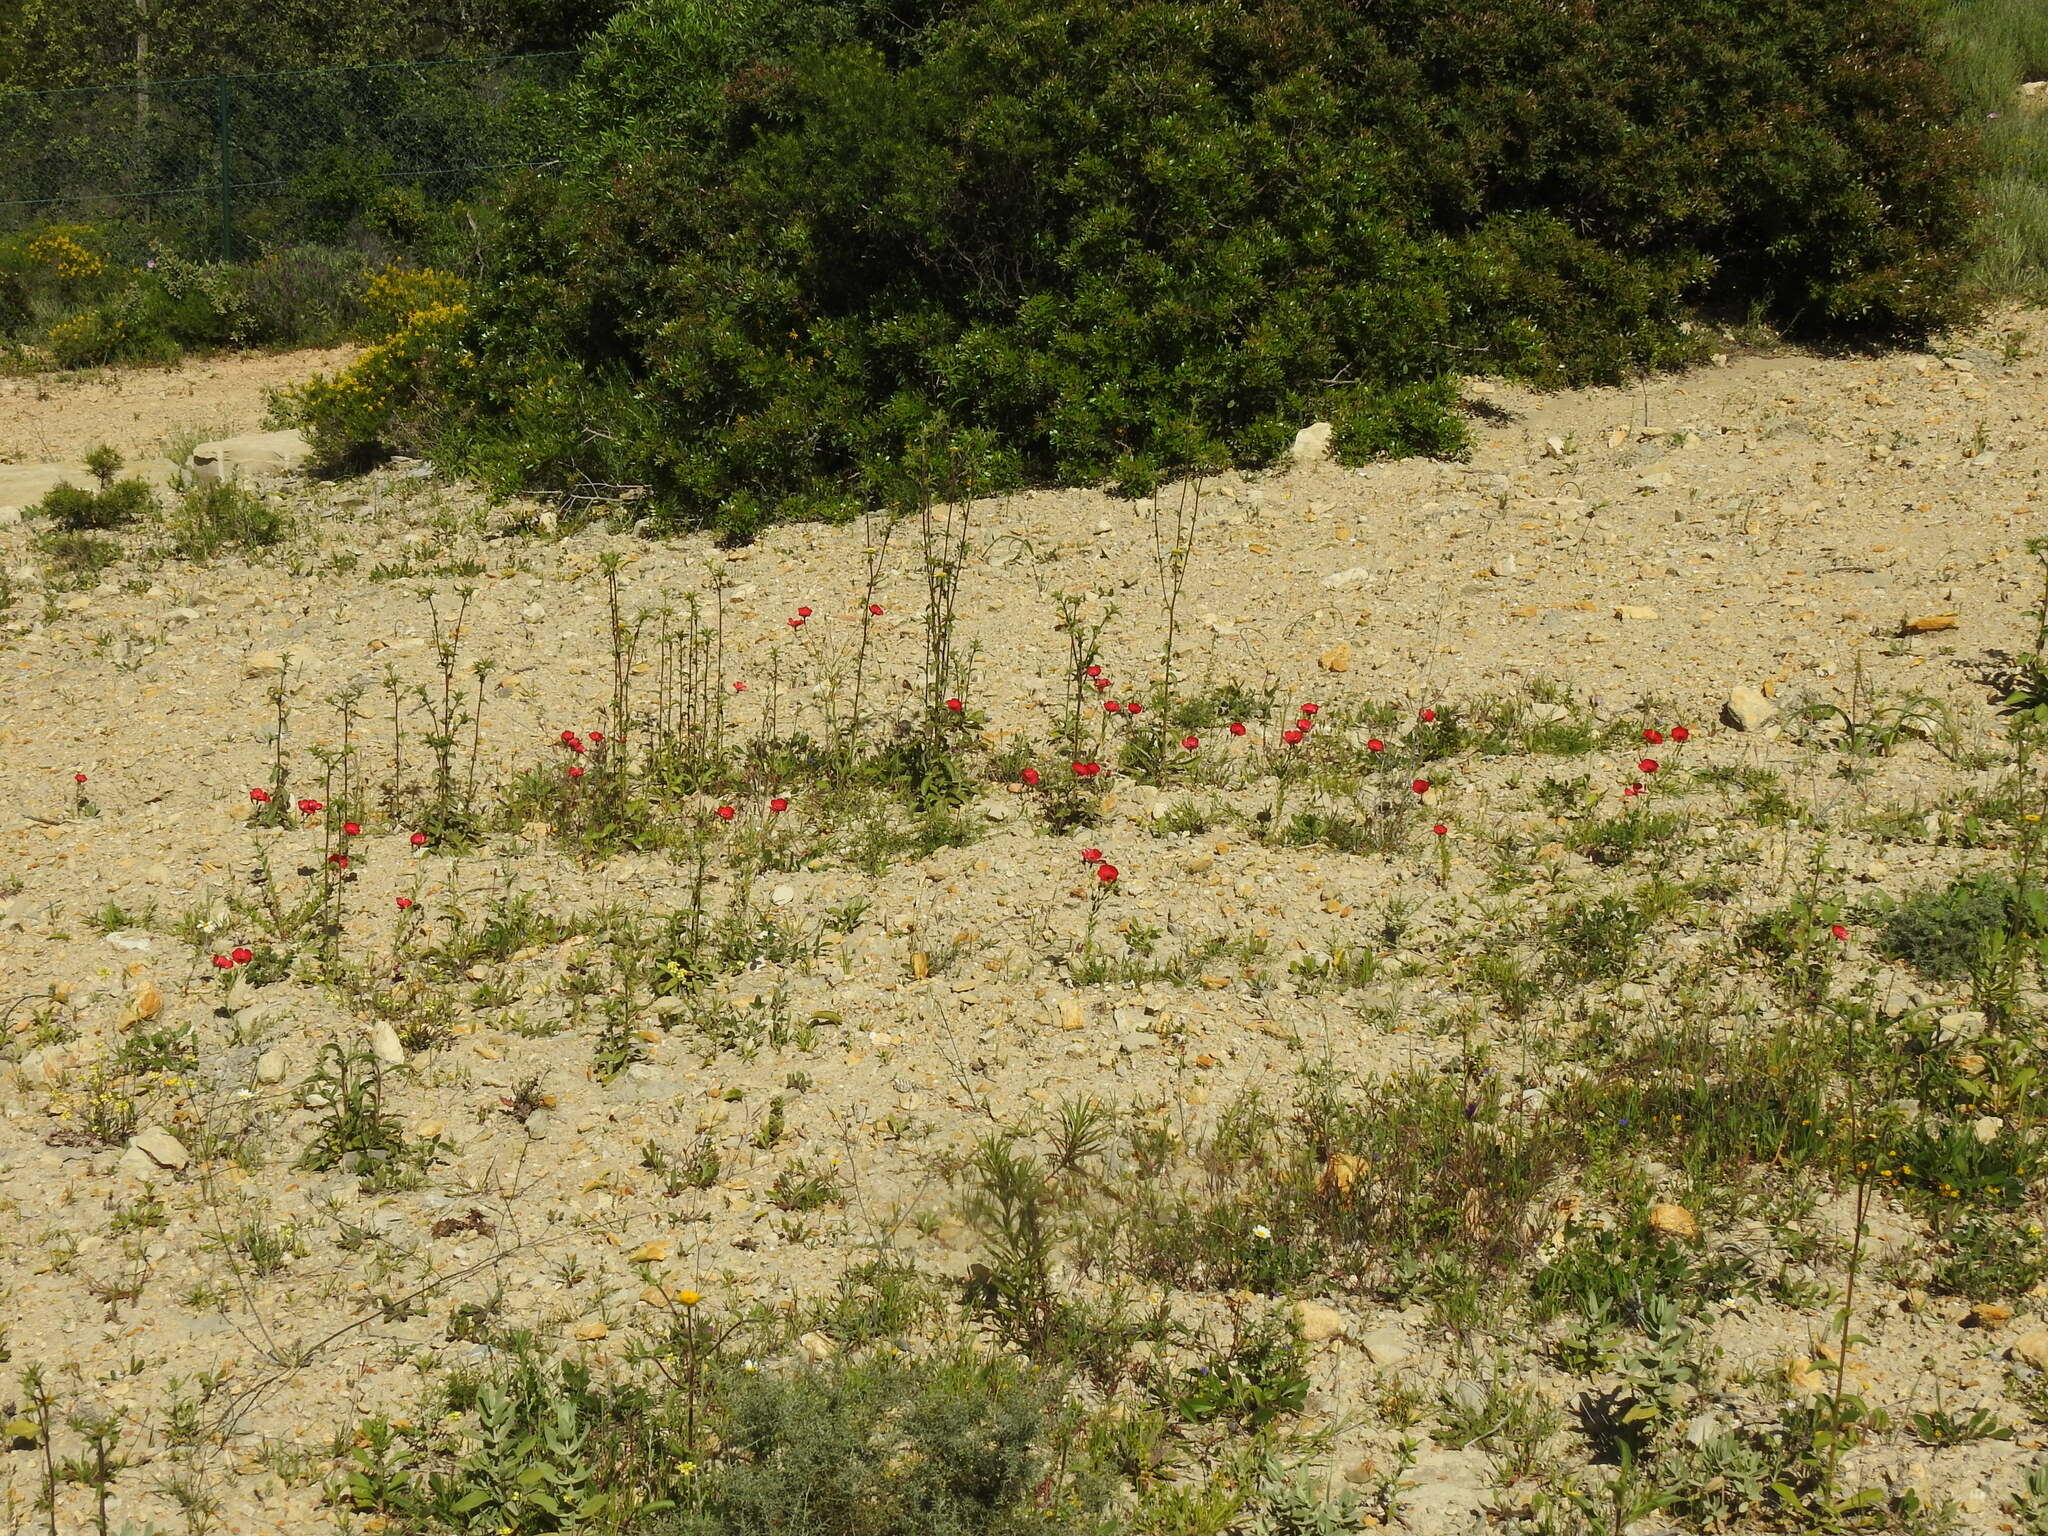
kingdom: Plantae
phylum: Tracheophyta
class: Magnoliopsida
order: Malpighiales
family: Linaceae
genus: Linum
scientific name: Linum grandiflorum
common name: Crimson flax
